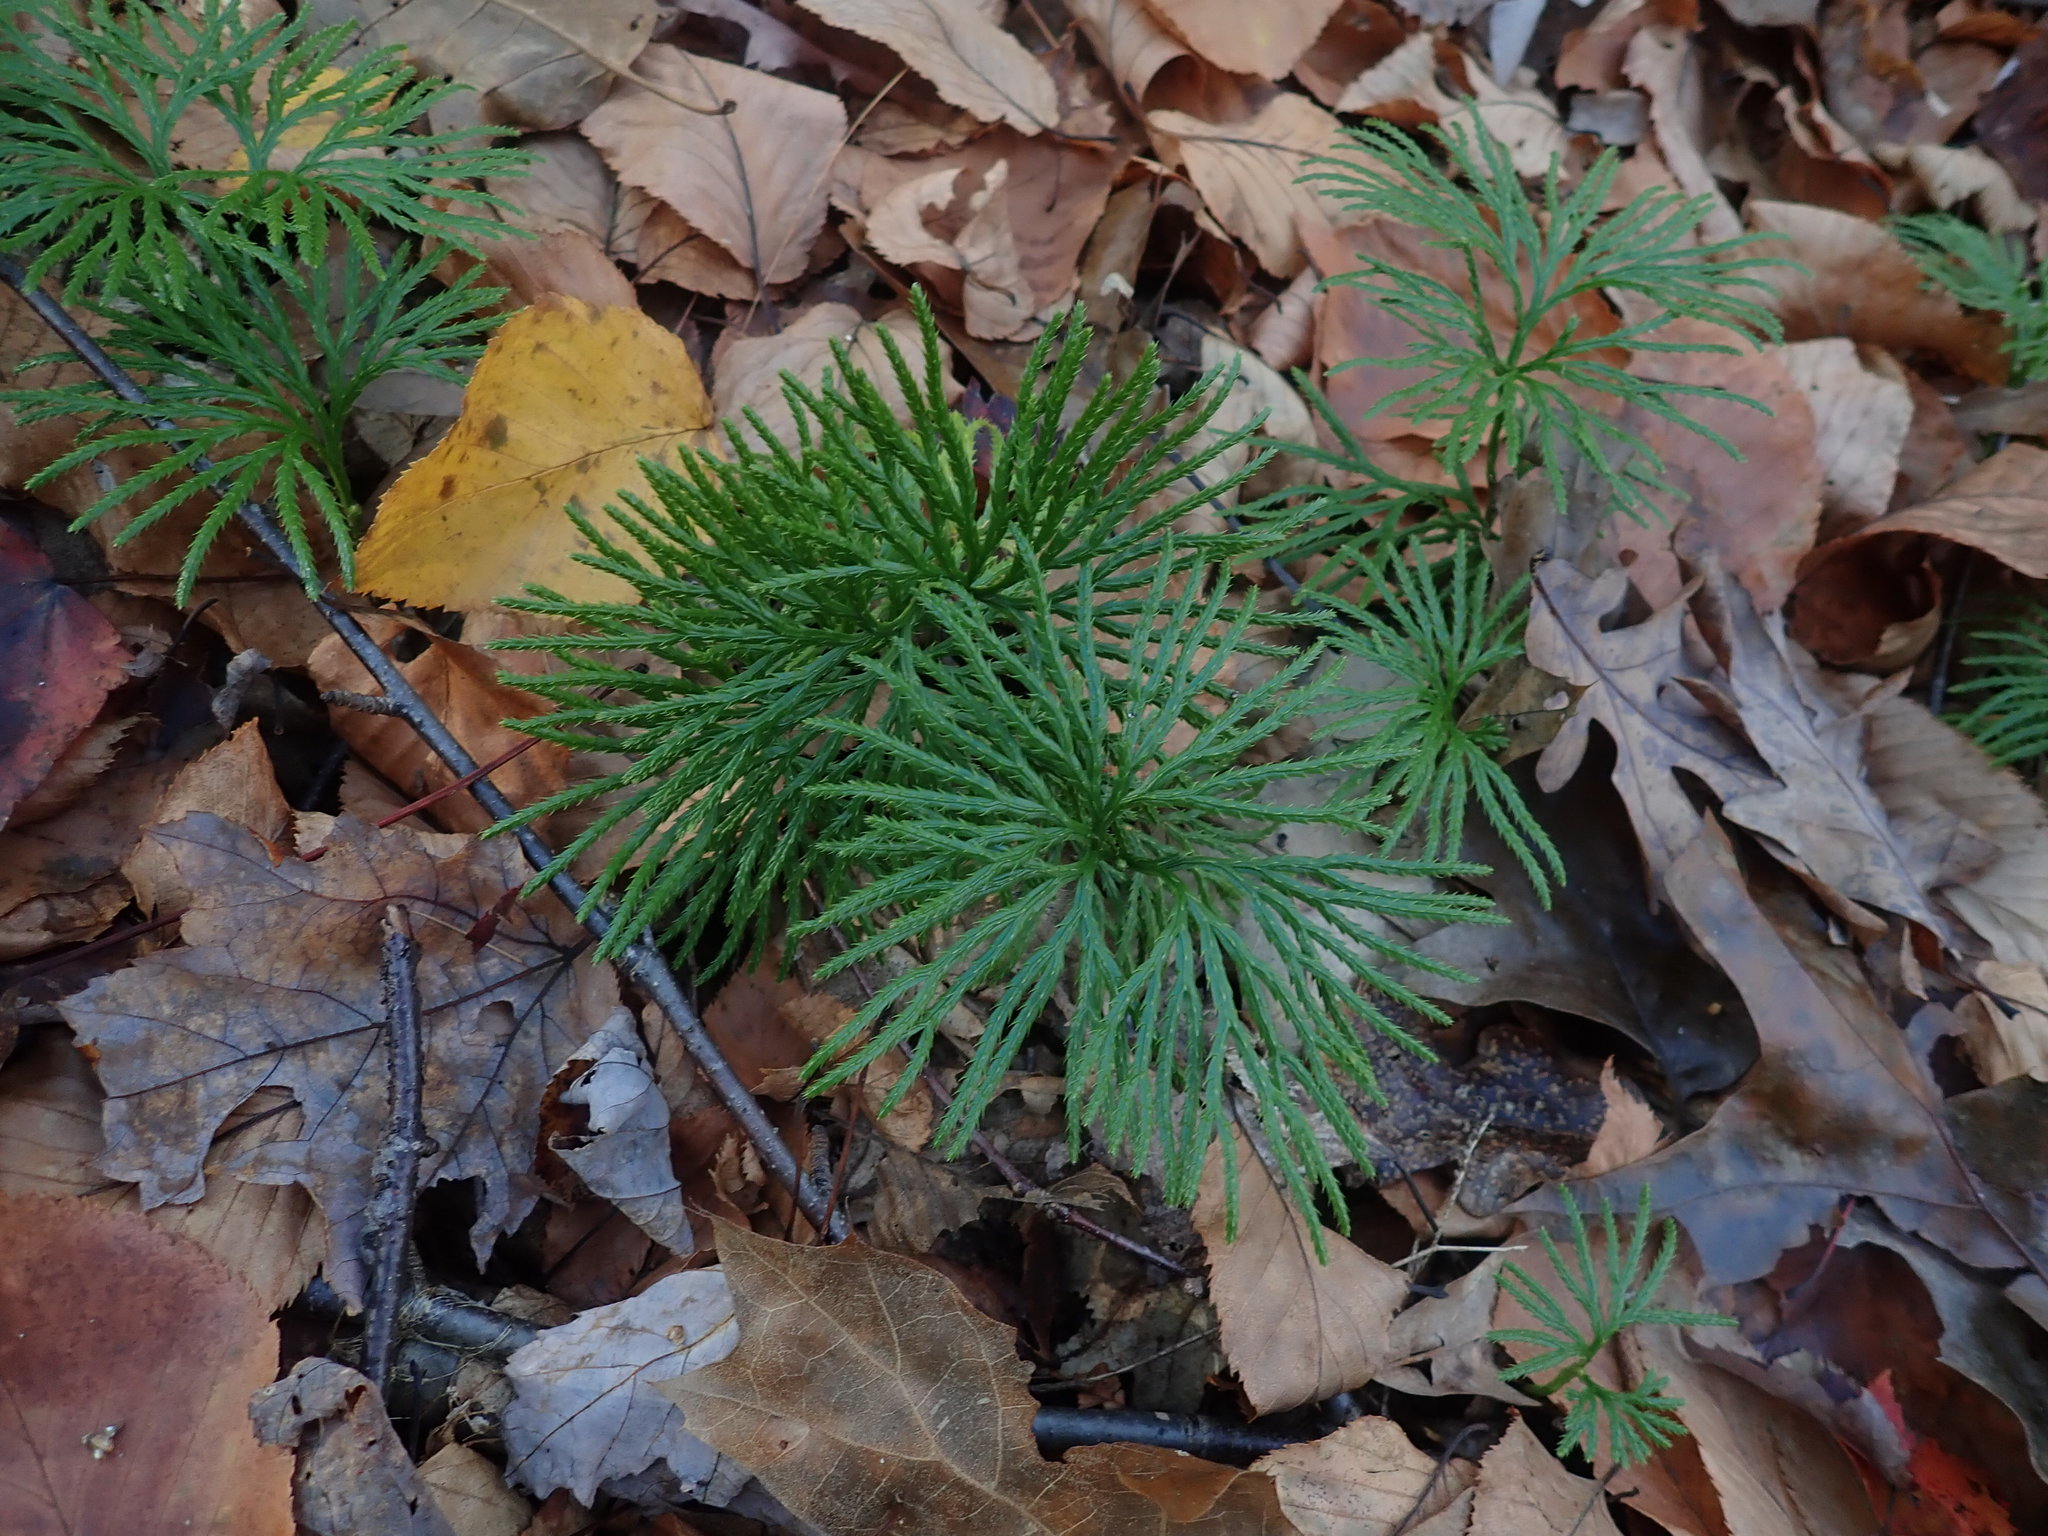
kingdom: Plantae
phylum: Tracheophyta
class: Lycopodiopsida
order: Lycopodiales
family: Lycopodiaceae
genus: Diphasiastrum
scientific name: Diphasiastrum digitatum
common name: Southern running-pine
